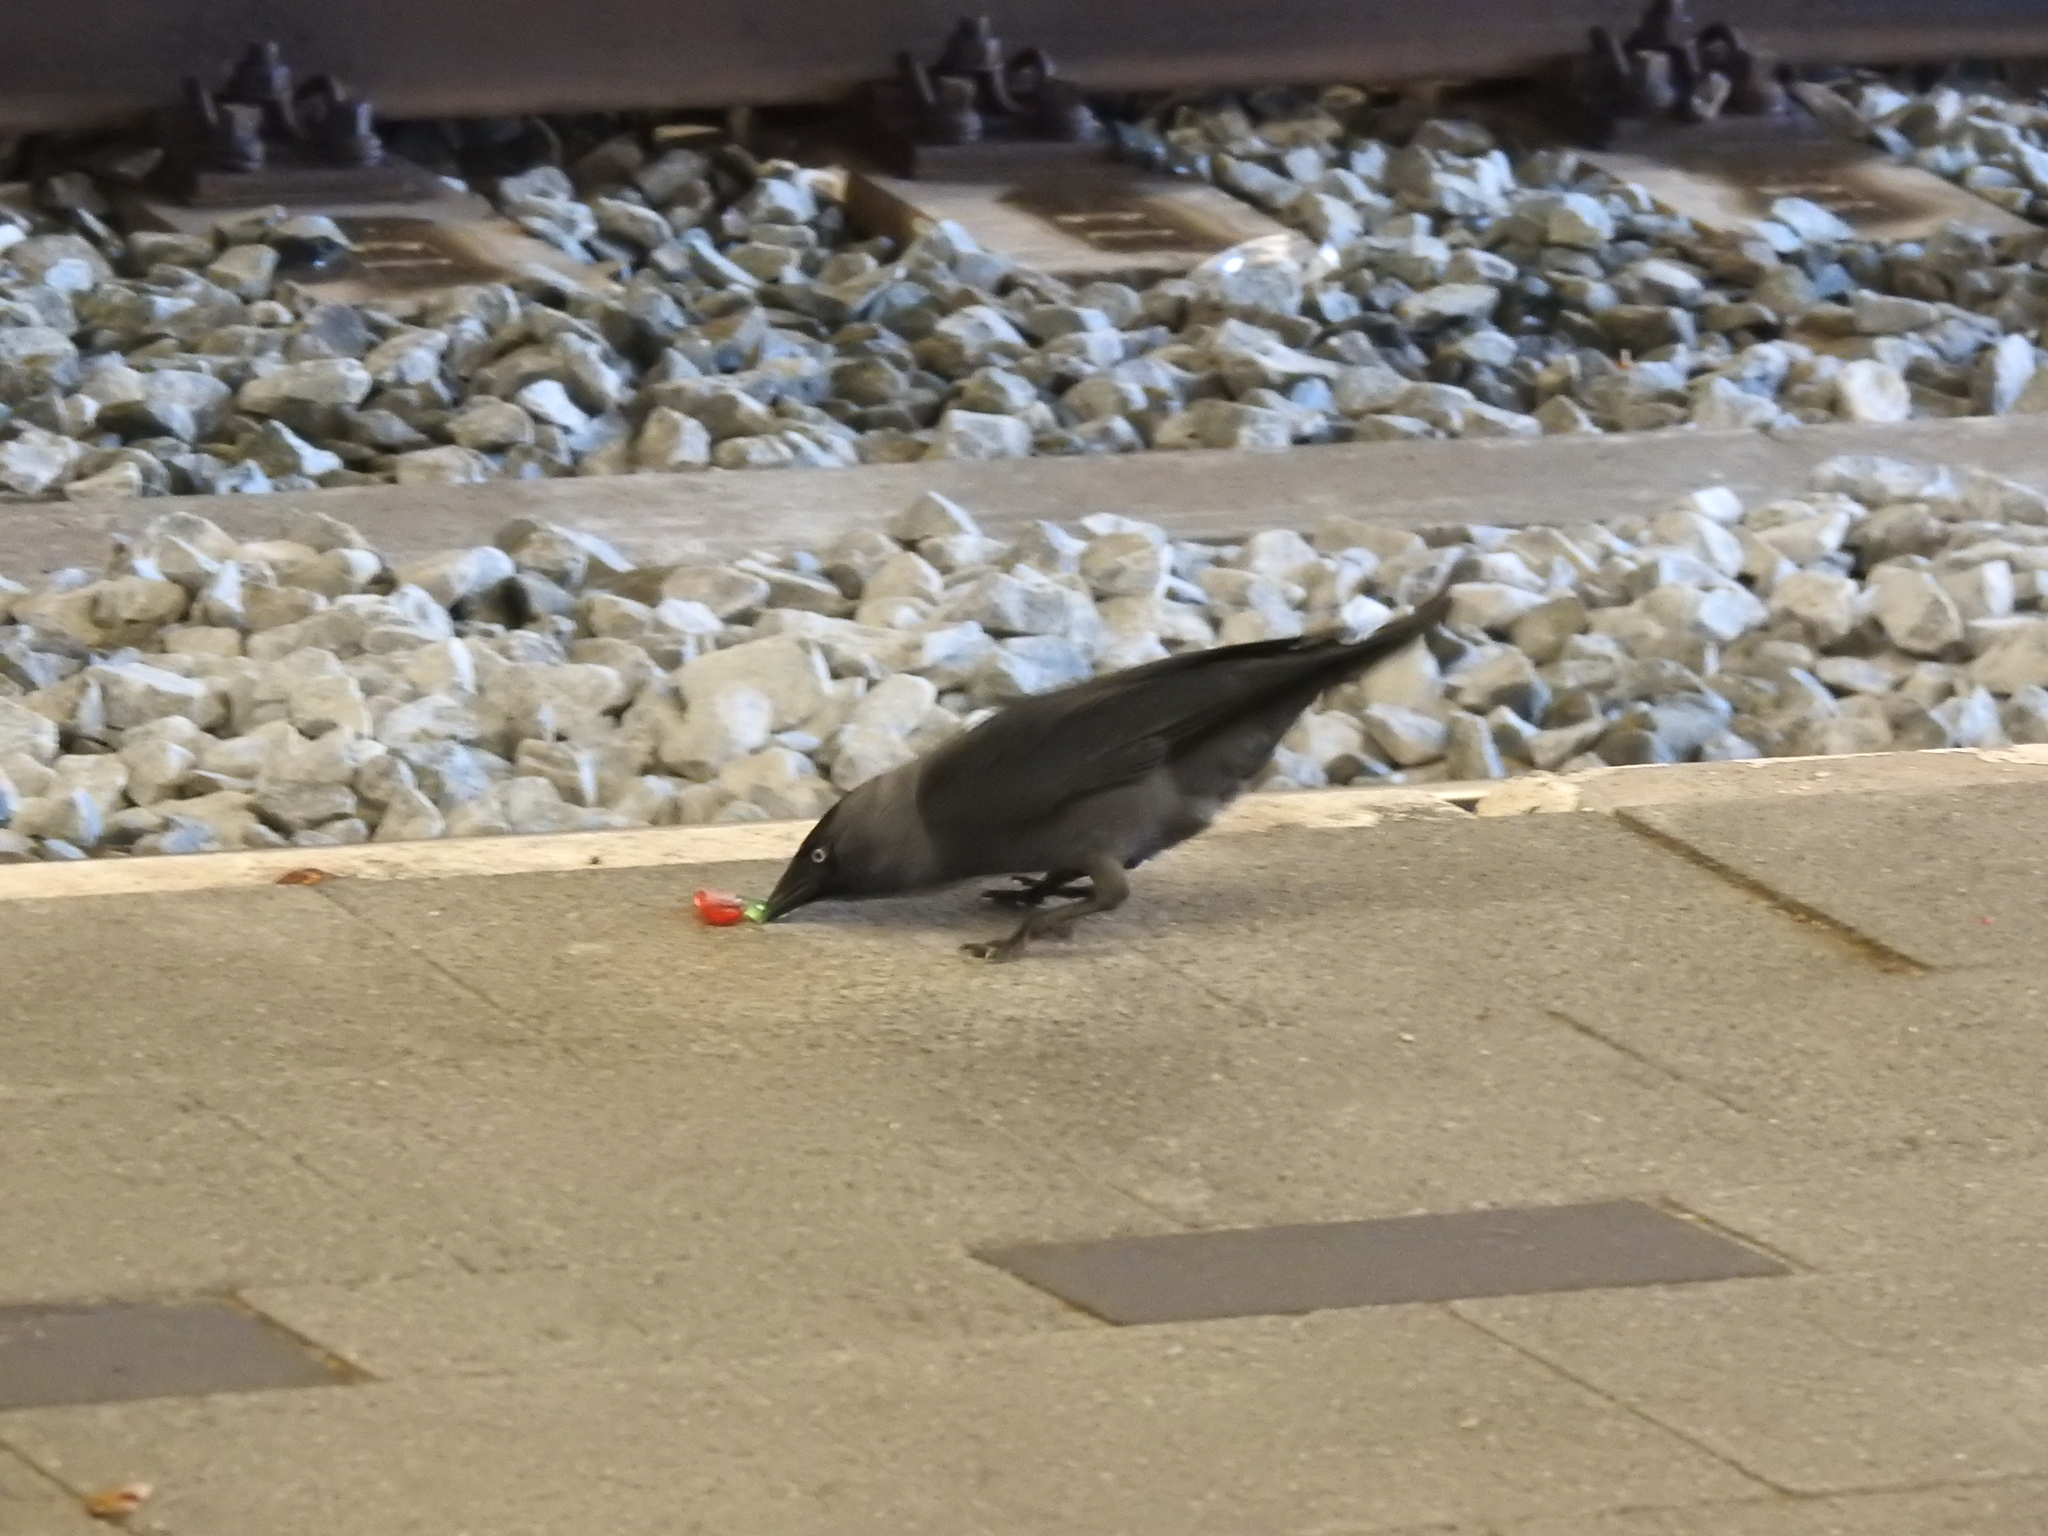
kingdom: Animalia
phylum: Chordata
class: Aves
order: Passeriformes
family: Corvidae
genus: Coloeus
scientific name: Coloeus monedula
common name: Western jackdaw
